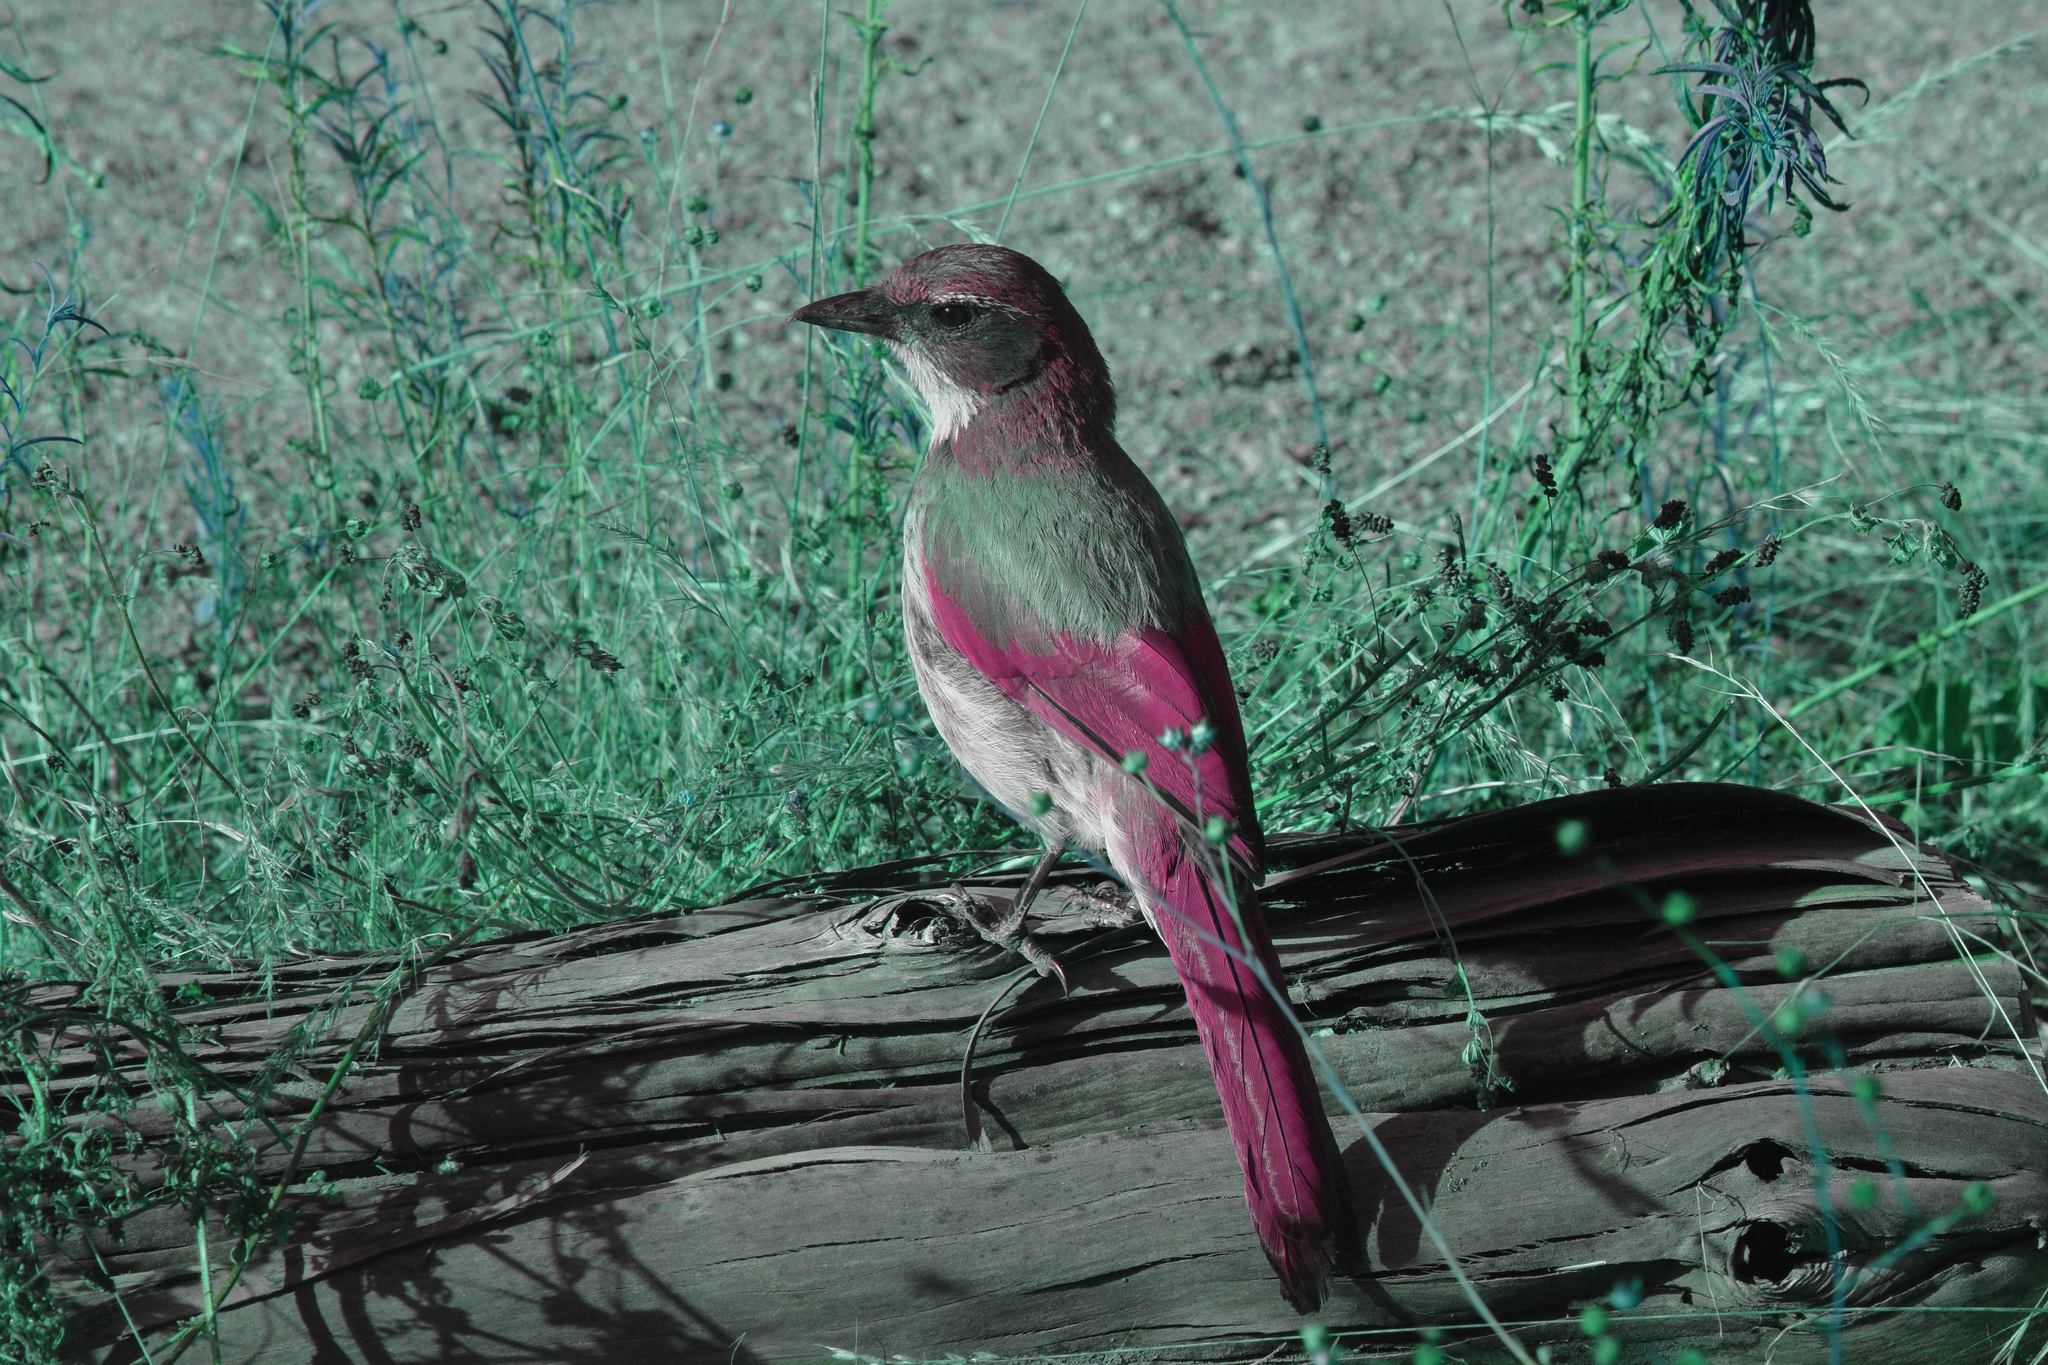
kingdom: Animalia
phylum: Chordata
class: Aves
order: Passeriformes
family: Corvidae
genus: Aphelocoma
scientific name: Aphelocoma californica
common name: California scrub-jay
